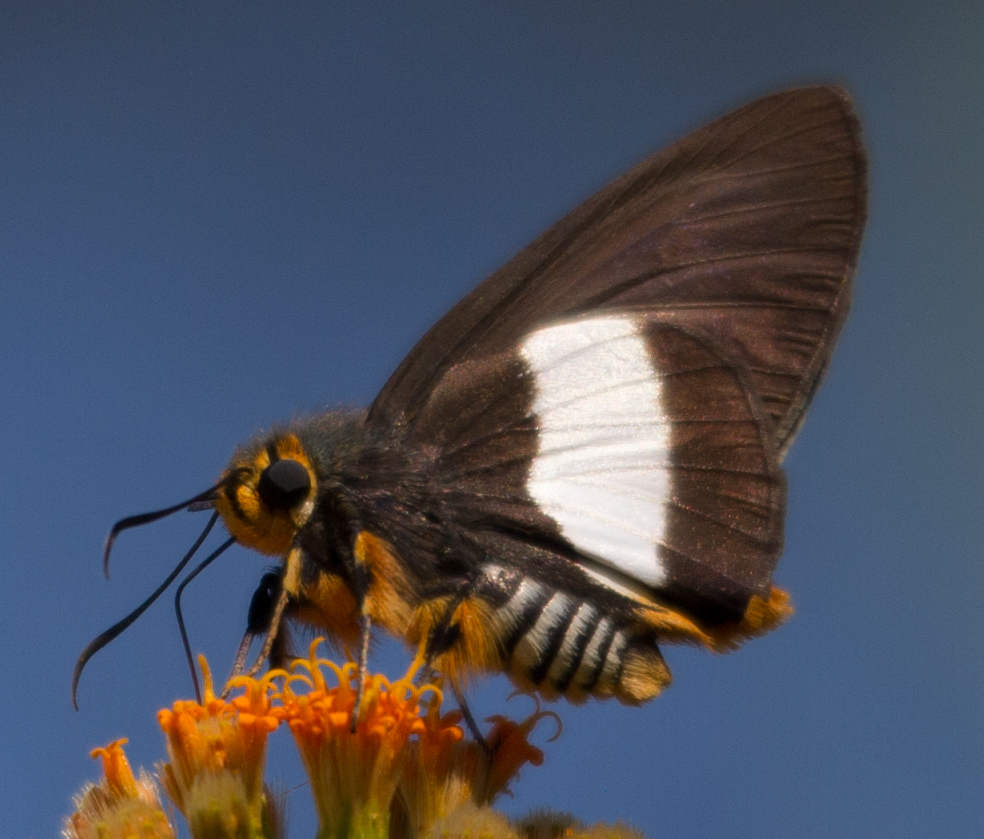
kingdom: Animalia
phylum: Arthropoda
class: Insecta
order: Lepidoptera
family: Hesperiidae
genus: Coeliades
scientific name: Coeliades forestan
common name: Striped policeman
